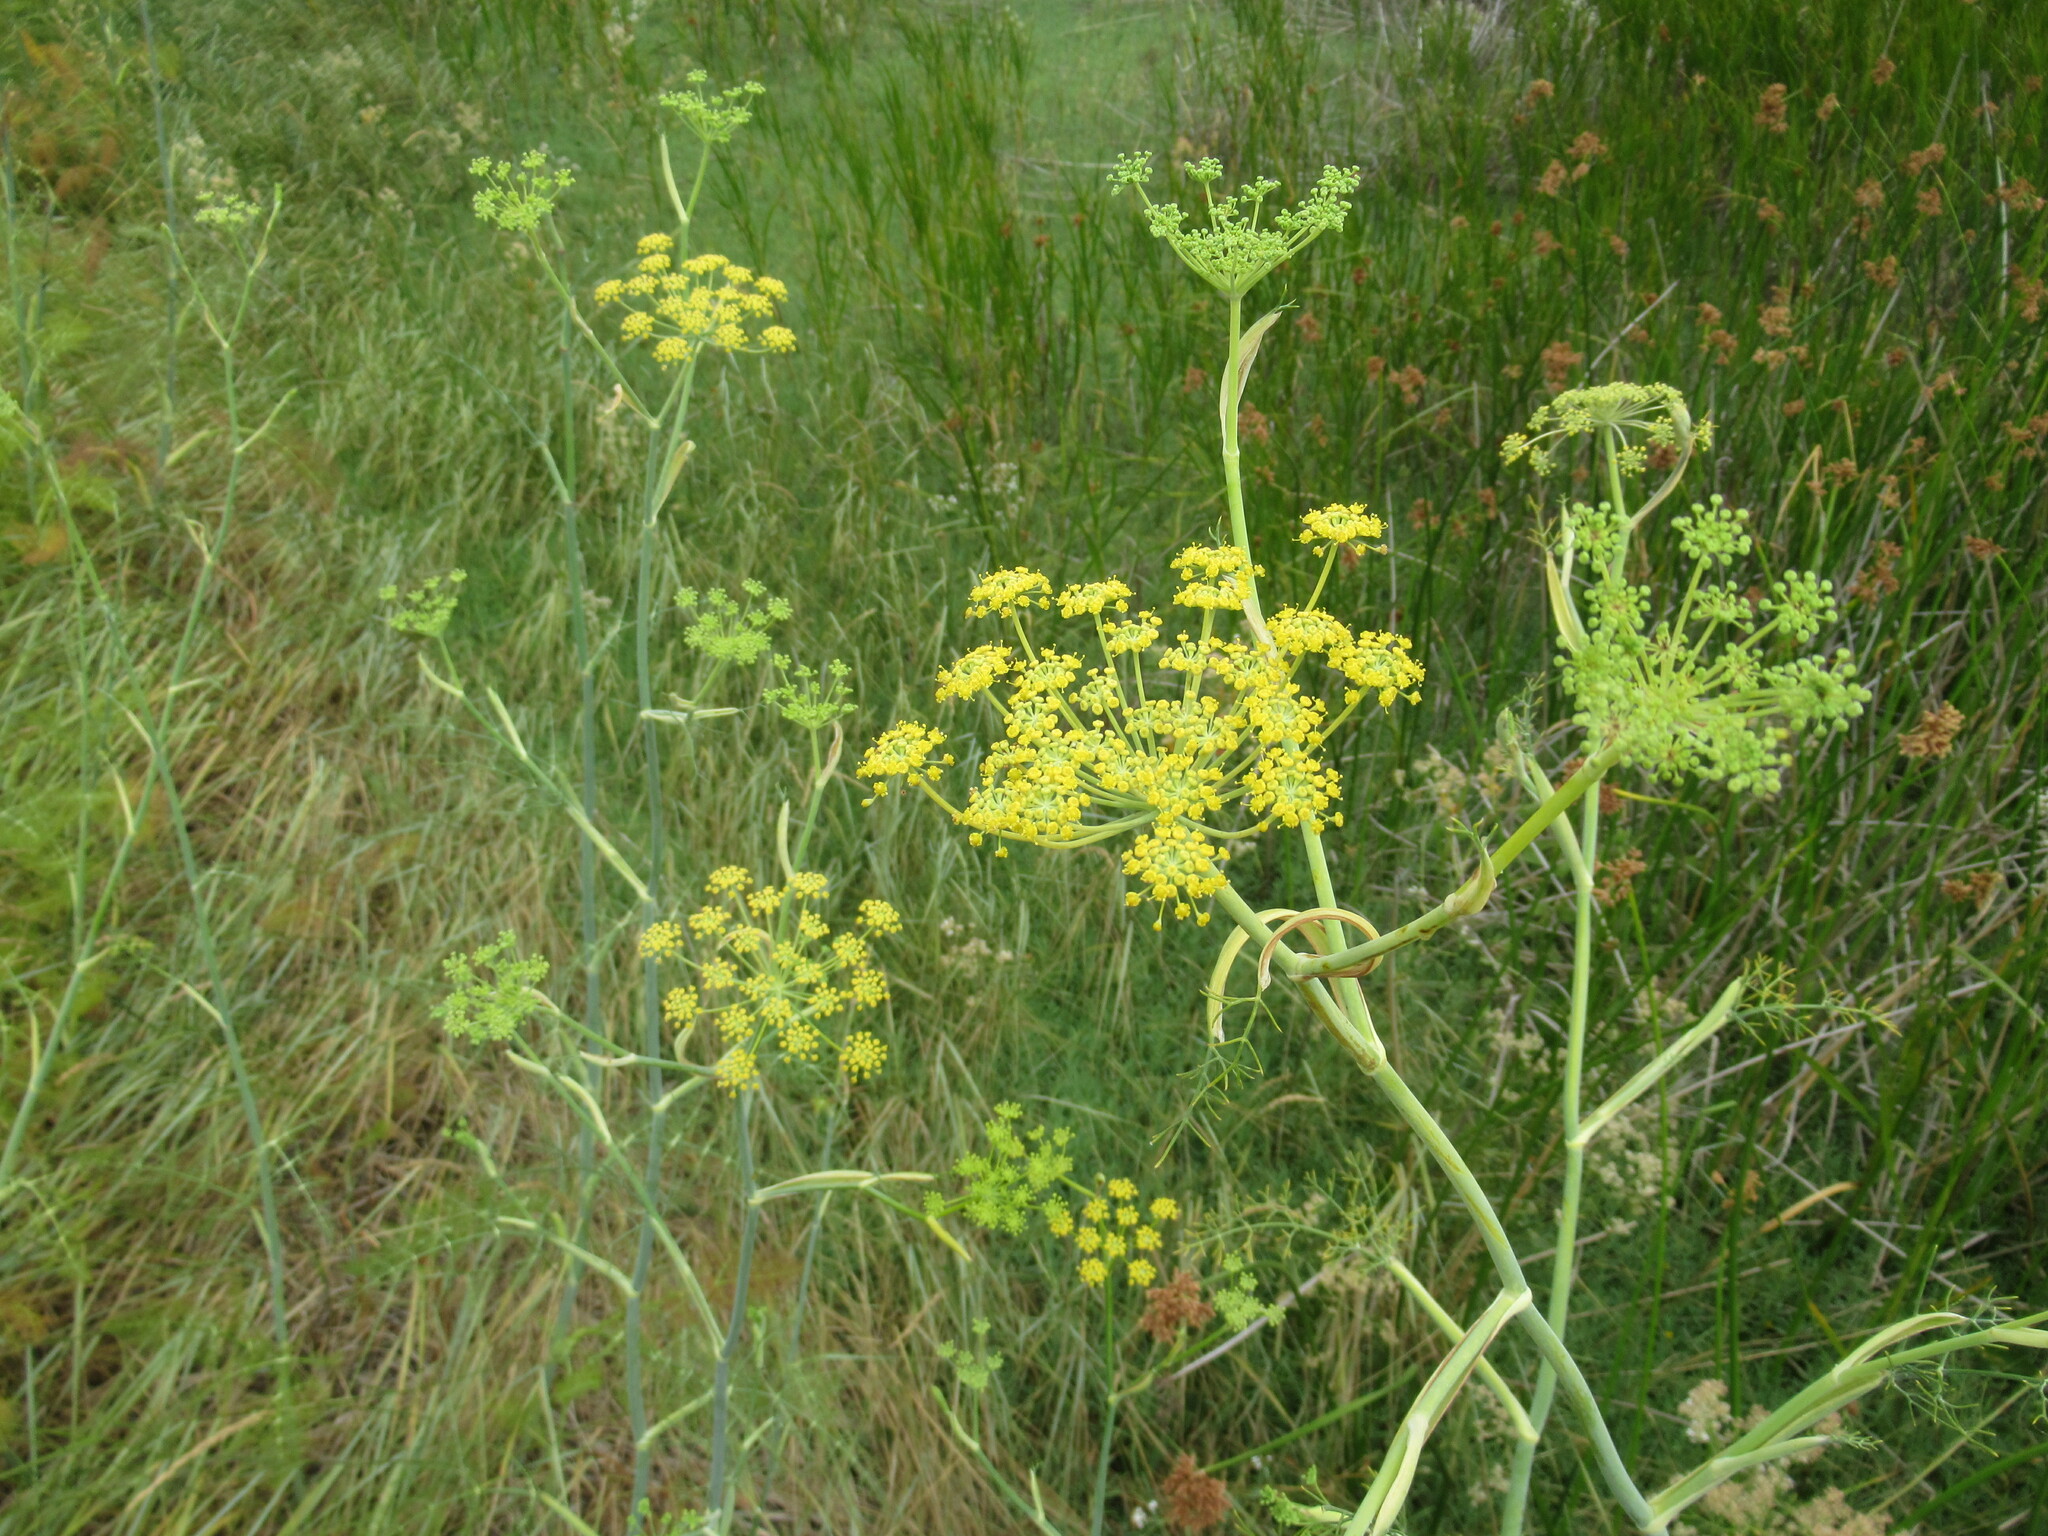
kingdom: Plantae
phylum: Tracheophyta
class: Magnoliopsida
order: Apiales
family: Apiaceae
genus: Foeniculum
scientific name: Foeniculum vulgare
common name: Fennel
